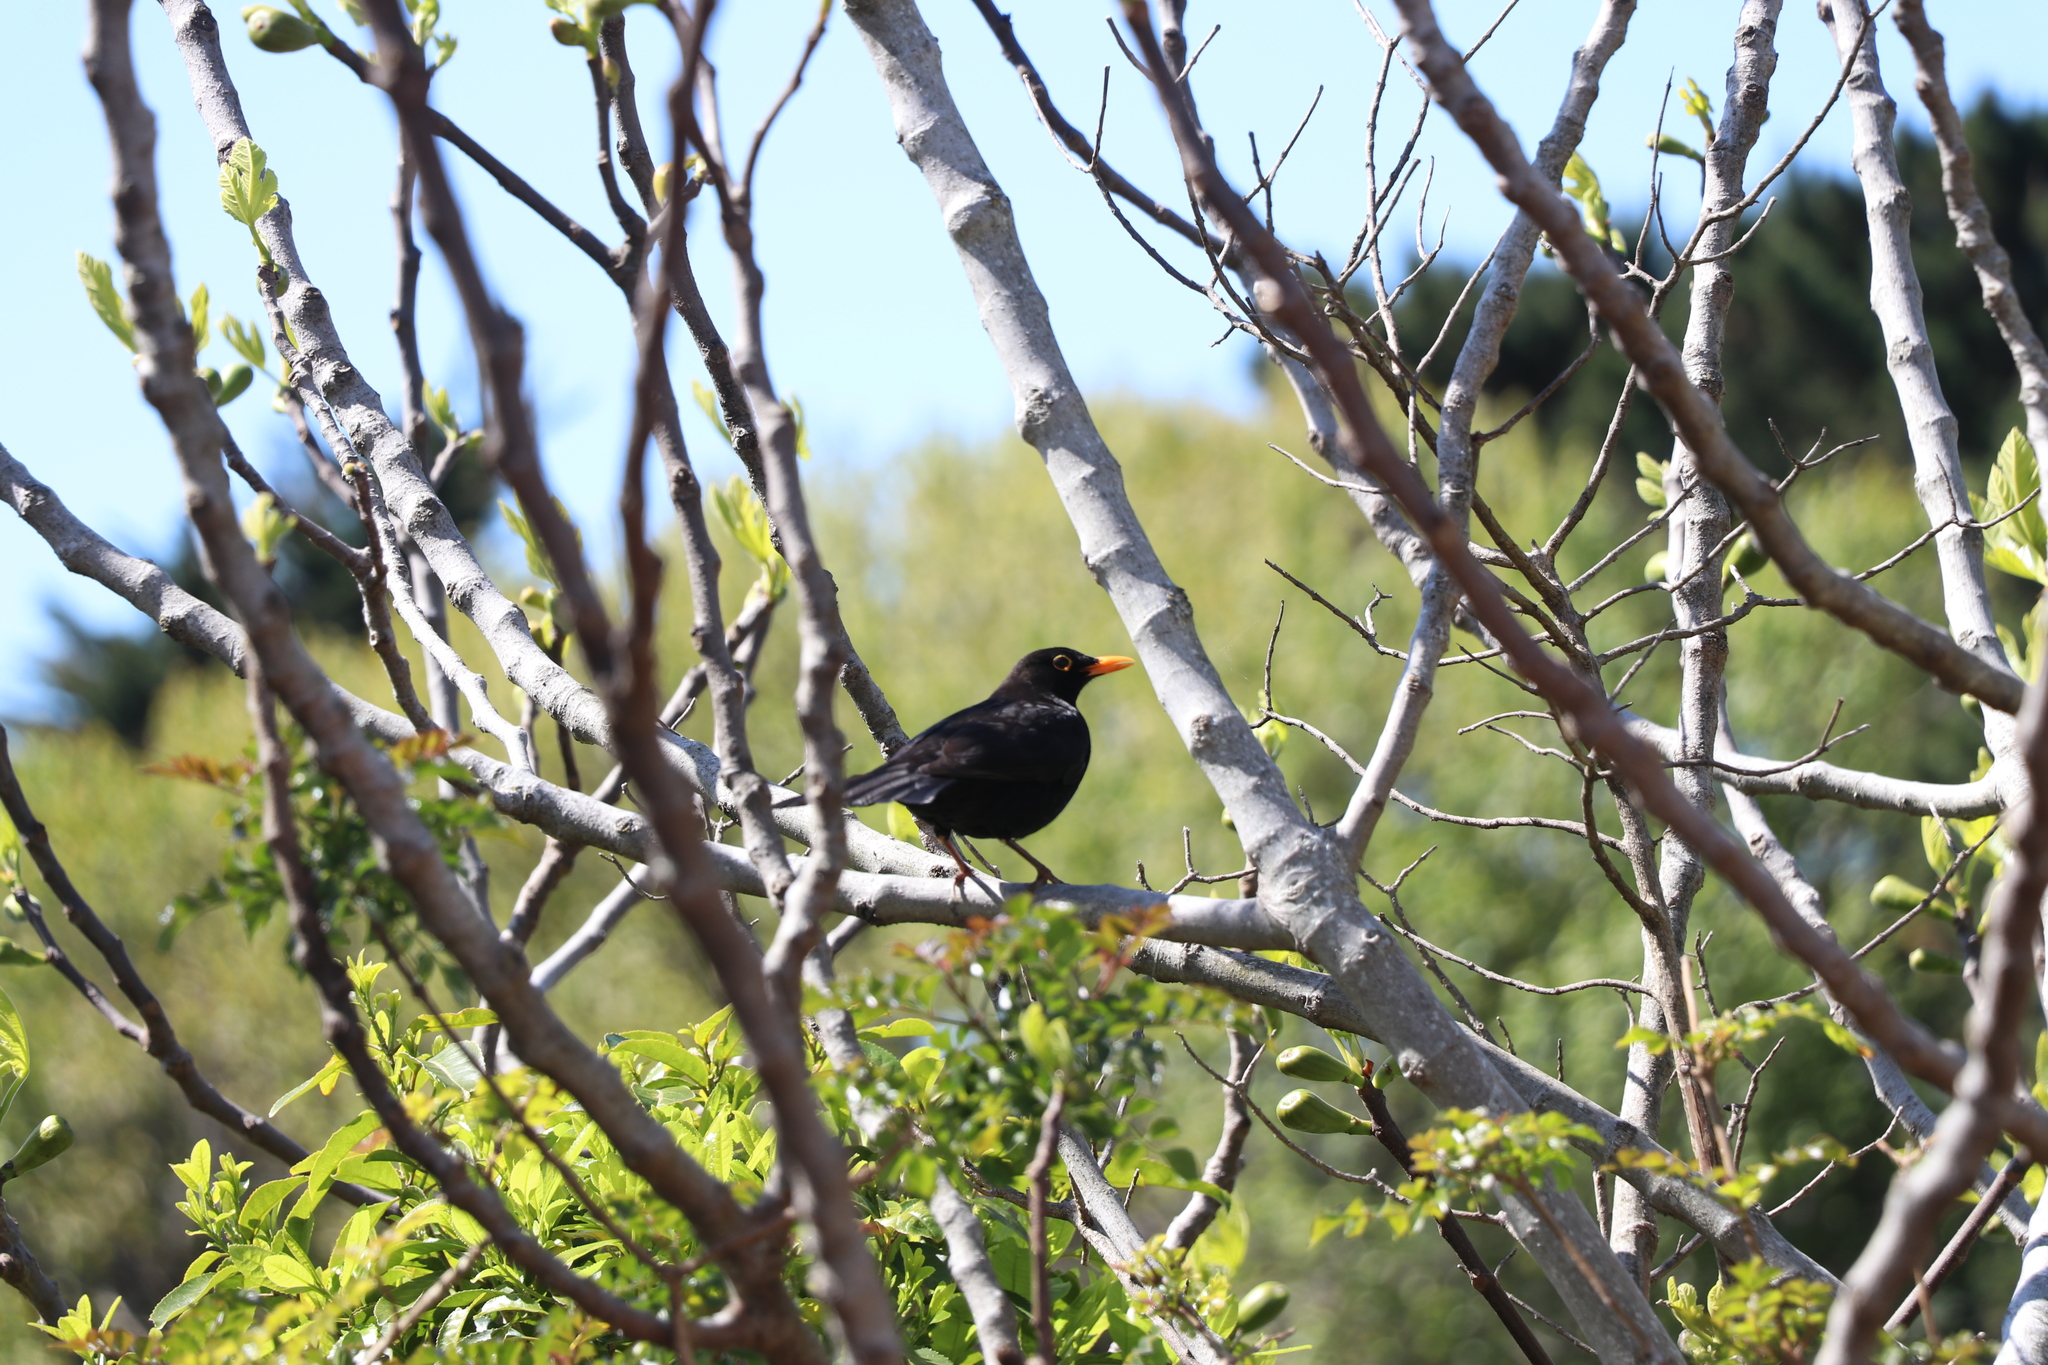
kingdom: Animalia
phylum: Chordata
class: Aves
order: Passeriformes
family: Turdidae
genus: Turdus
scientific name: Turdus merula
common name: Common blackbird
